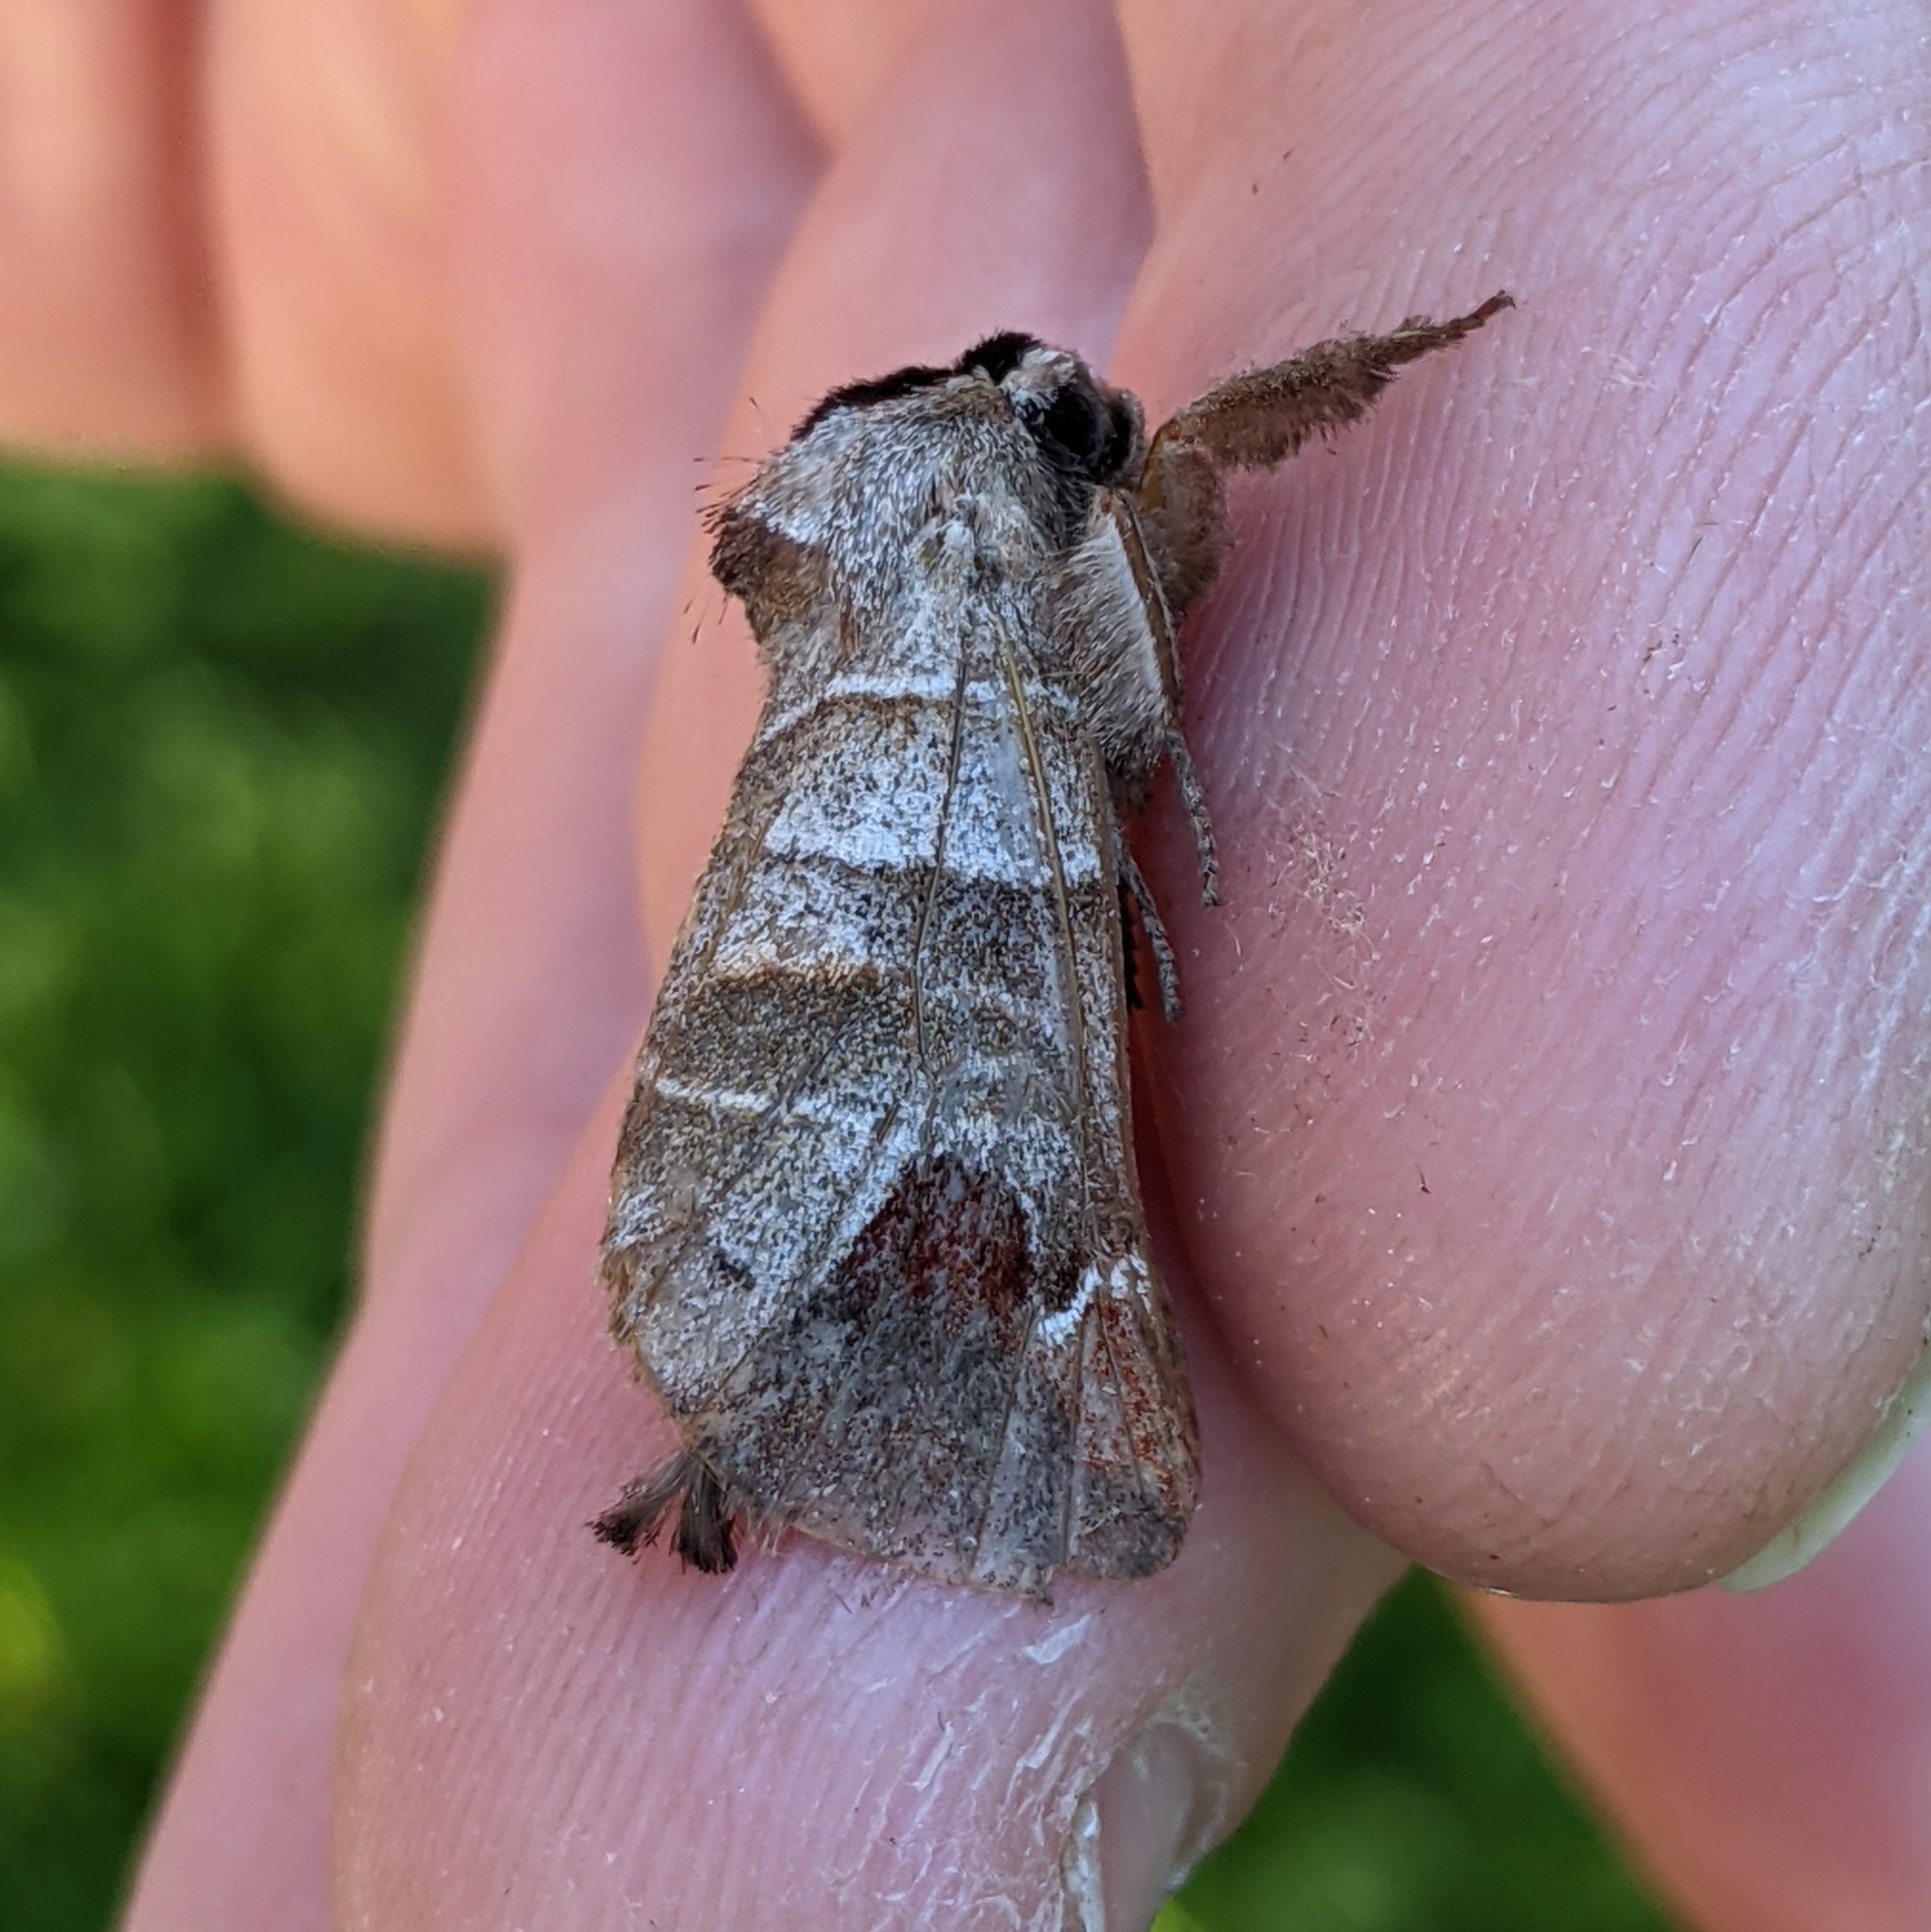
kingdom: Animalia
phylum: Arthropoda
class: Insecta
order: Lepidoptera
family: Notodontidae
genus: Clostera
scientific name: Clostera albosigma
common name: Sigmoid prominent
